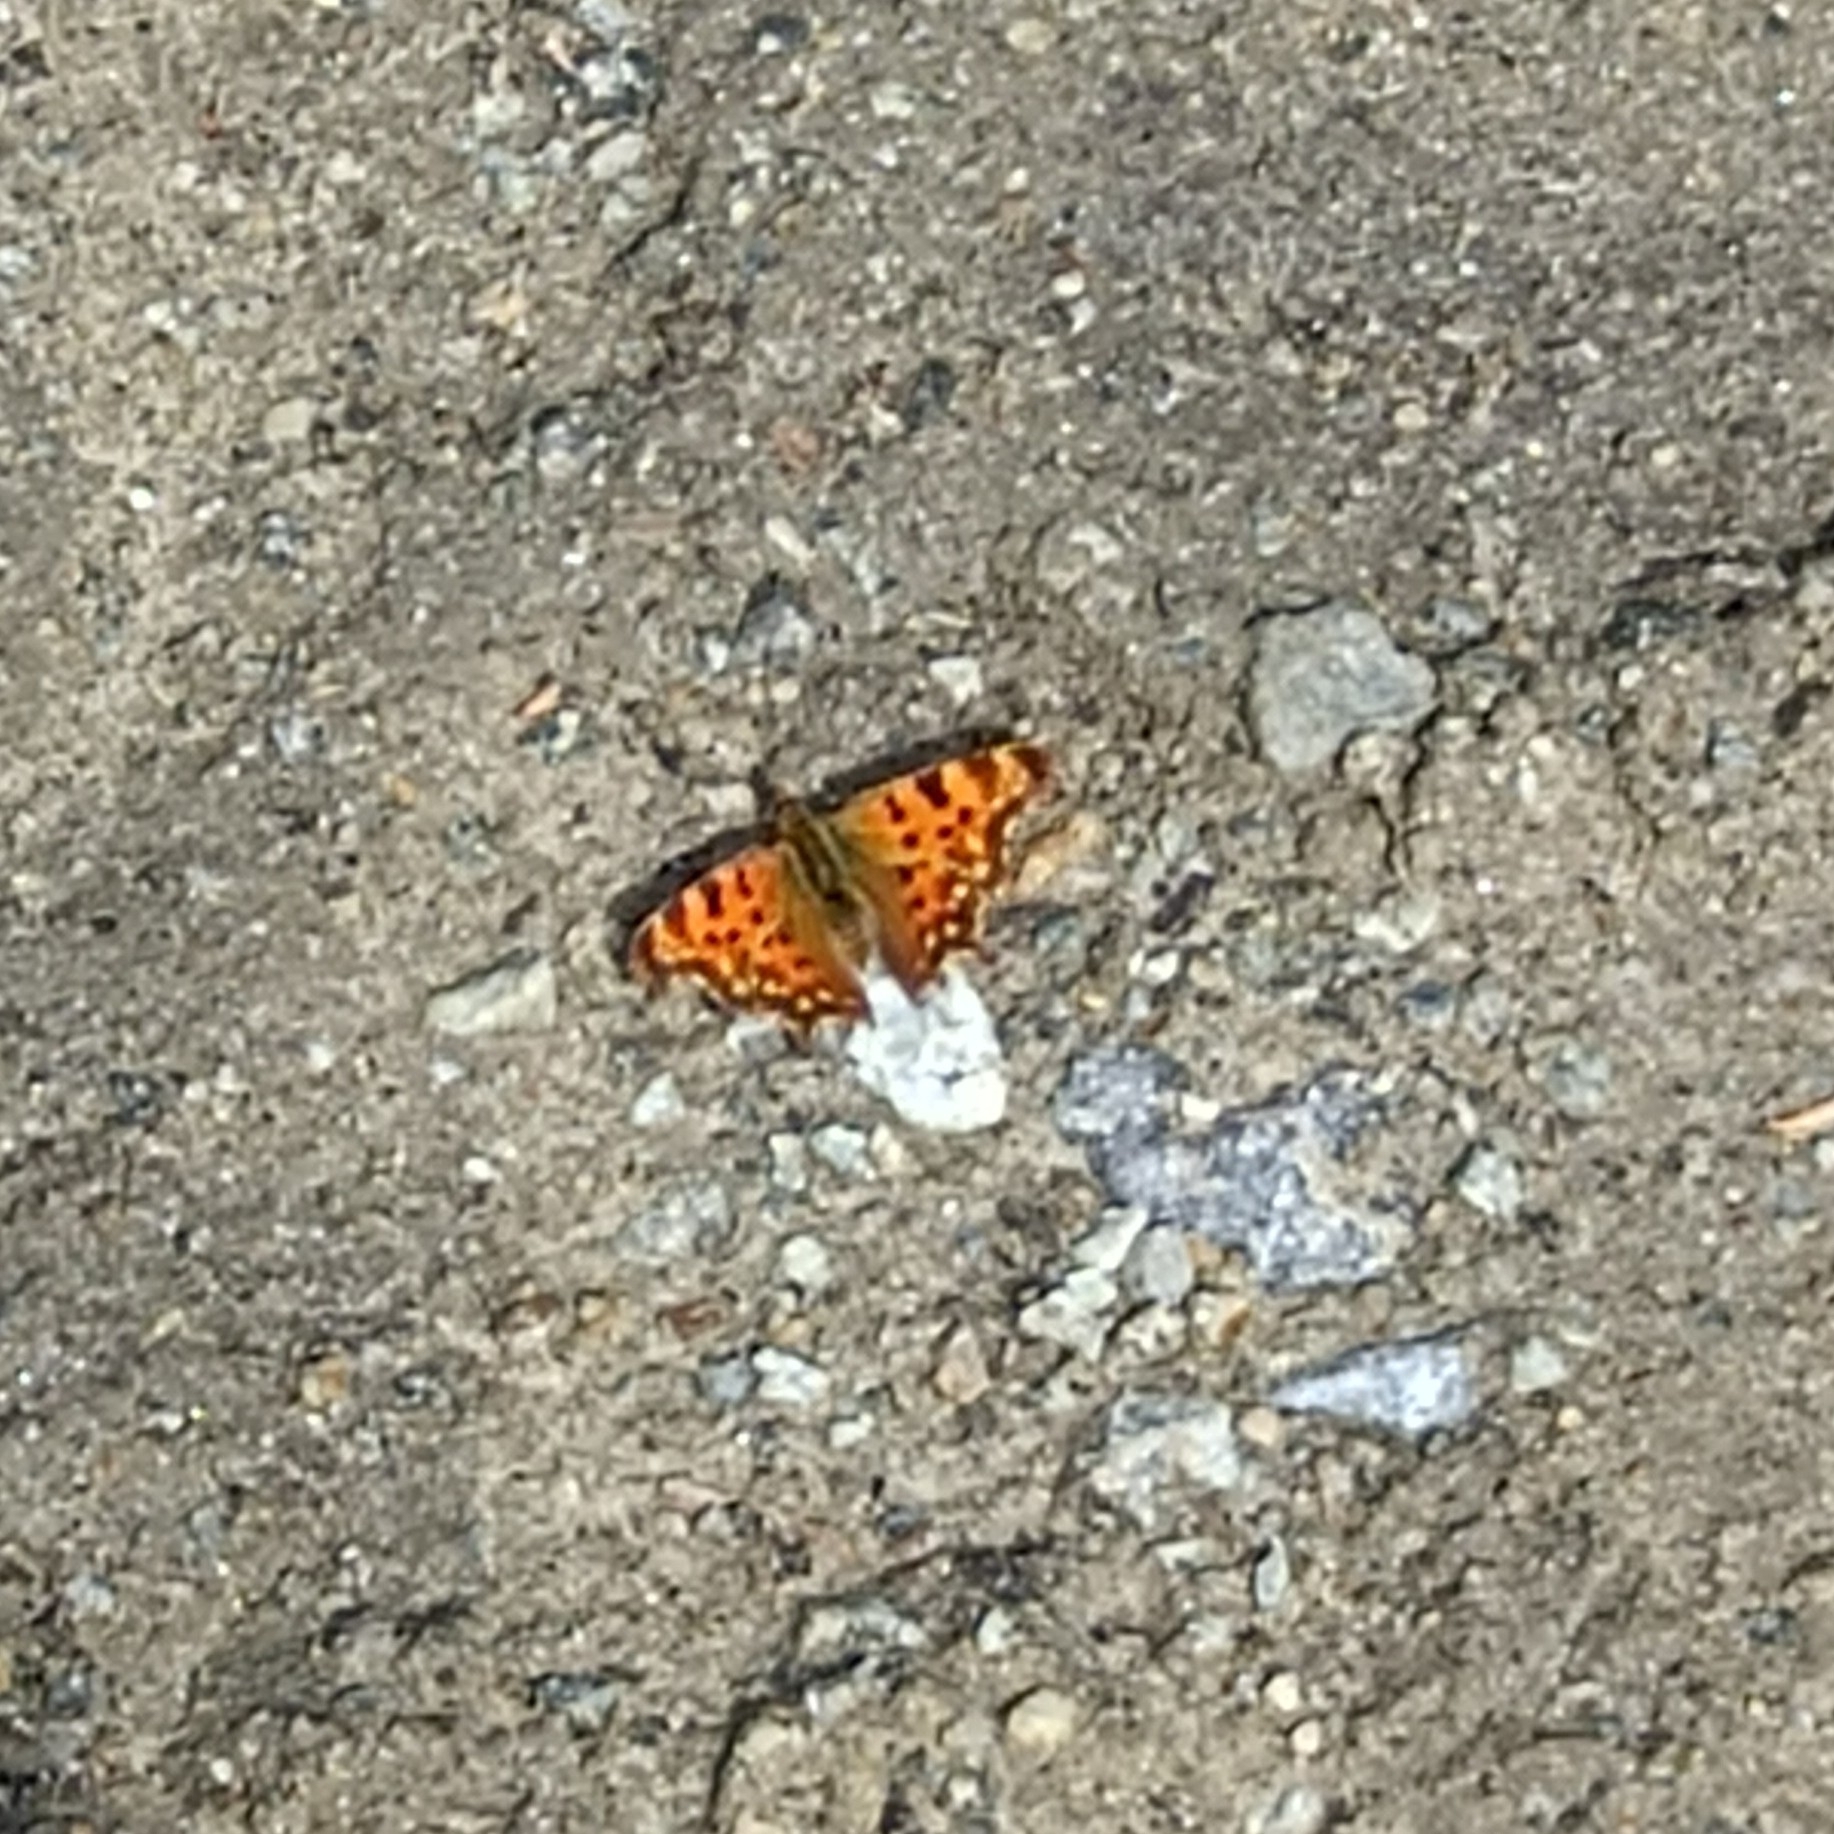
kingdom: Animalia
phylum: Arthropoda
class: Insecta
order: Lepidoptera
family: Nymphalidae
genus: Polygonia
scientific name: Polygonia c-album
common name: Comma
